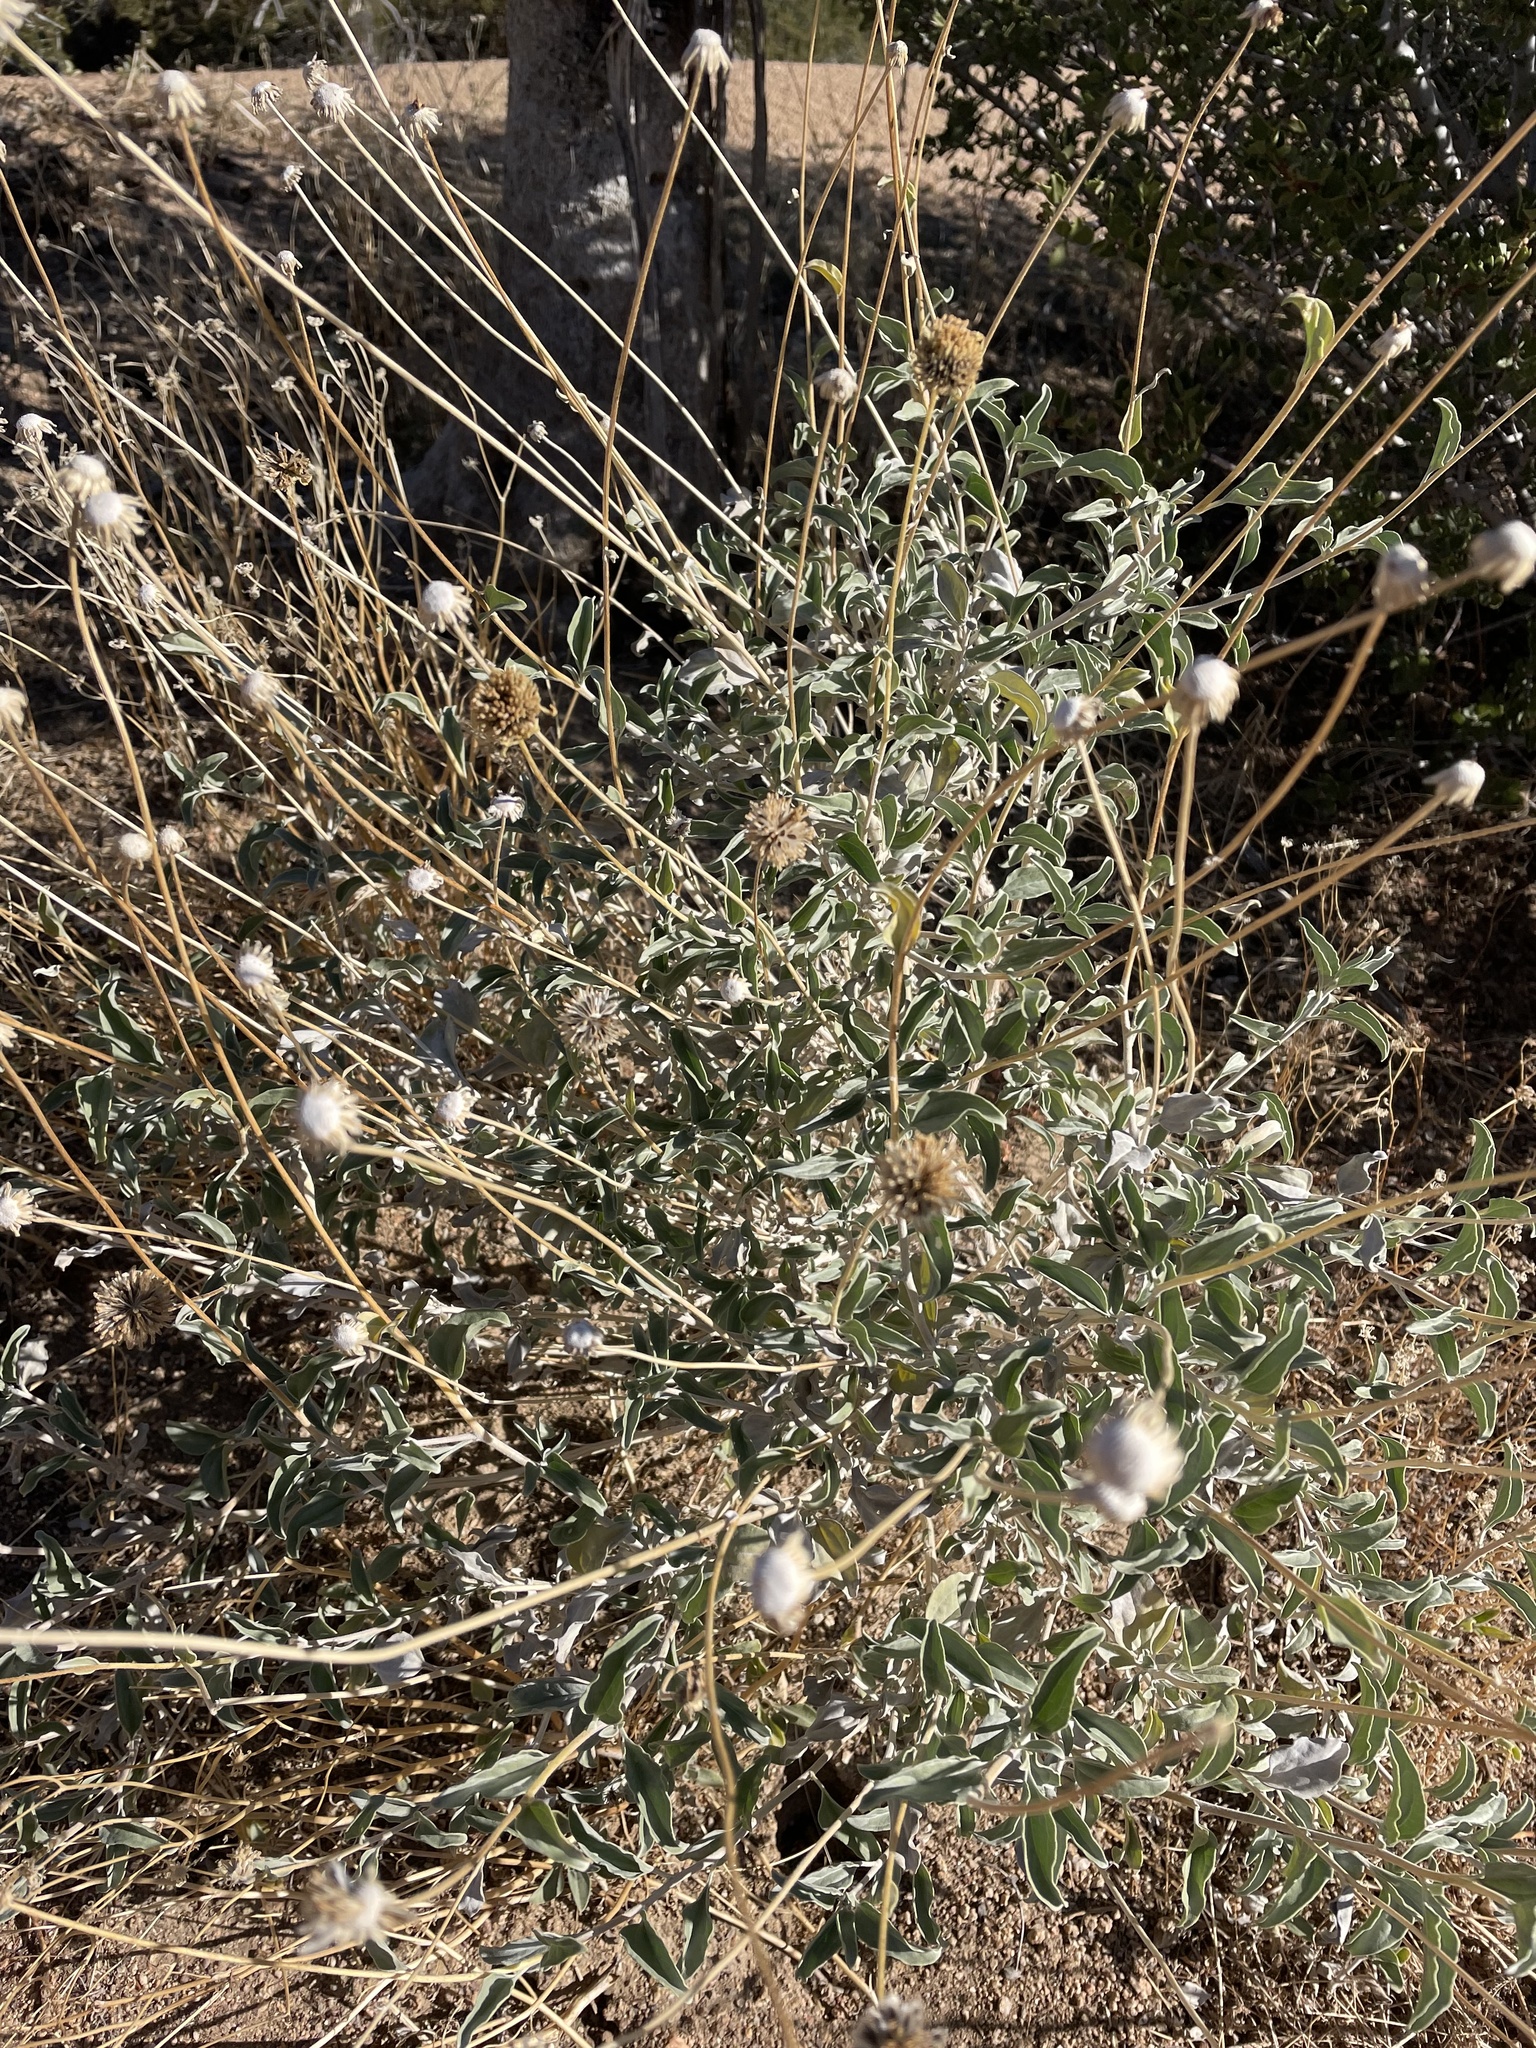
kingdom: Plantae
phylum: Tracheophyta
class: Magnoliopsida
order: Asterales
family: Asteraceae
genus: Encelia
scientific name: Encelia actoni
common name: Acton encelia
